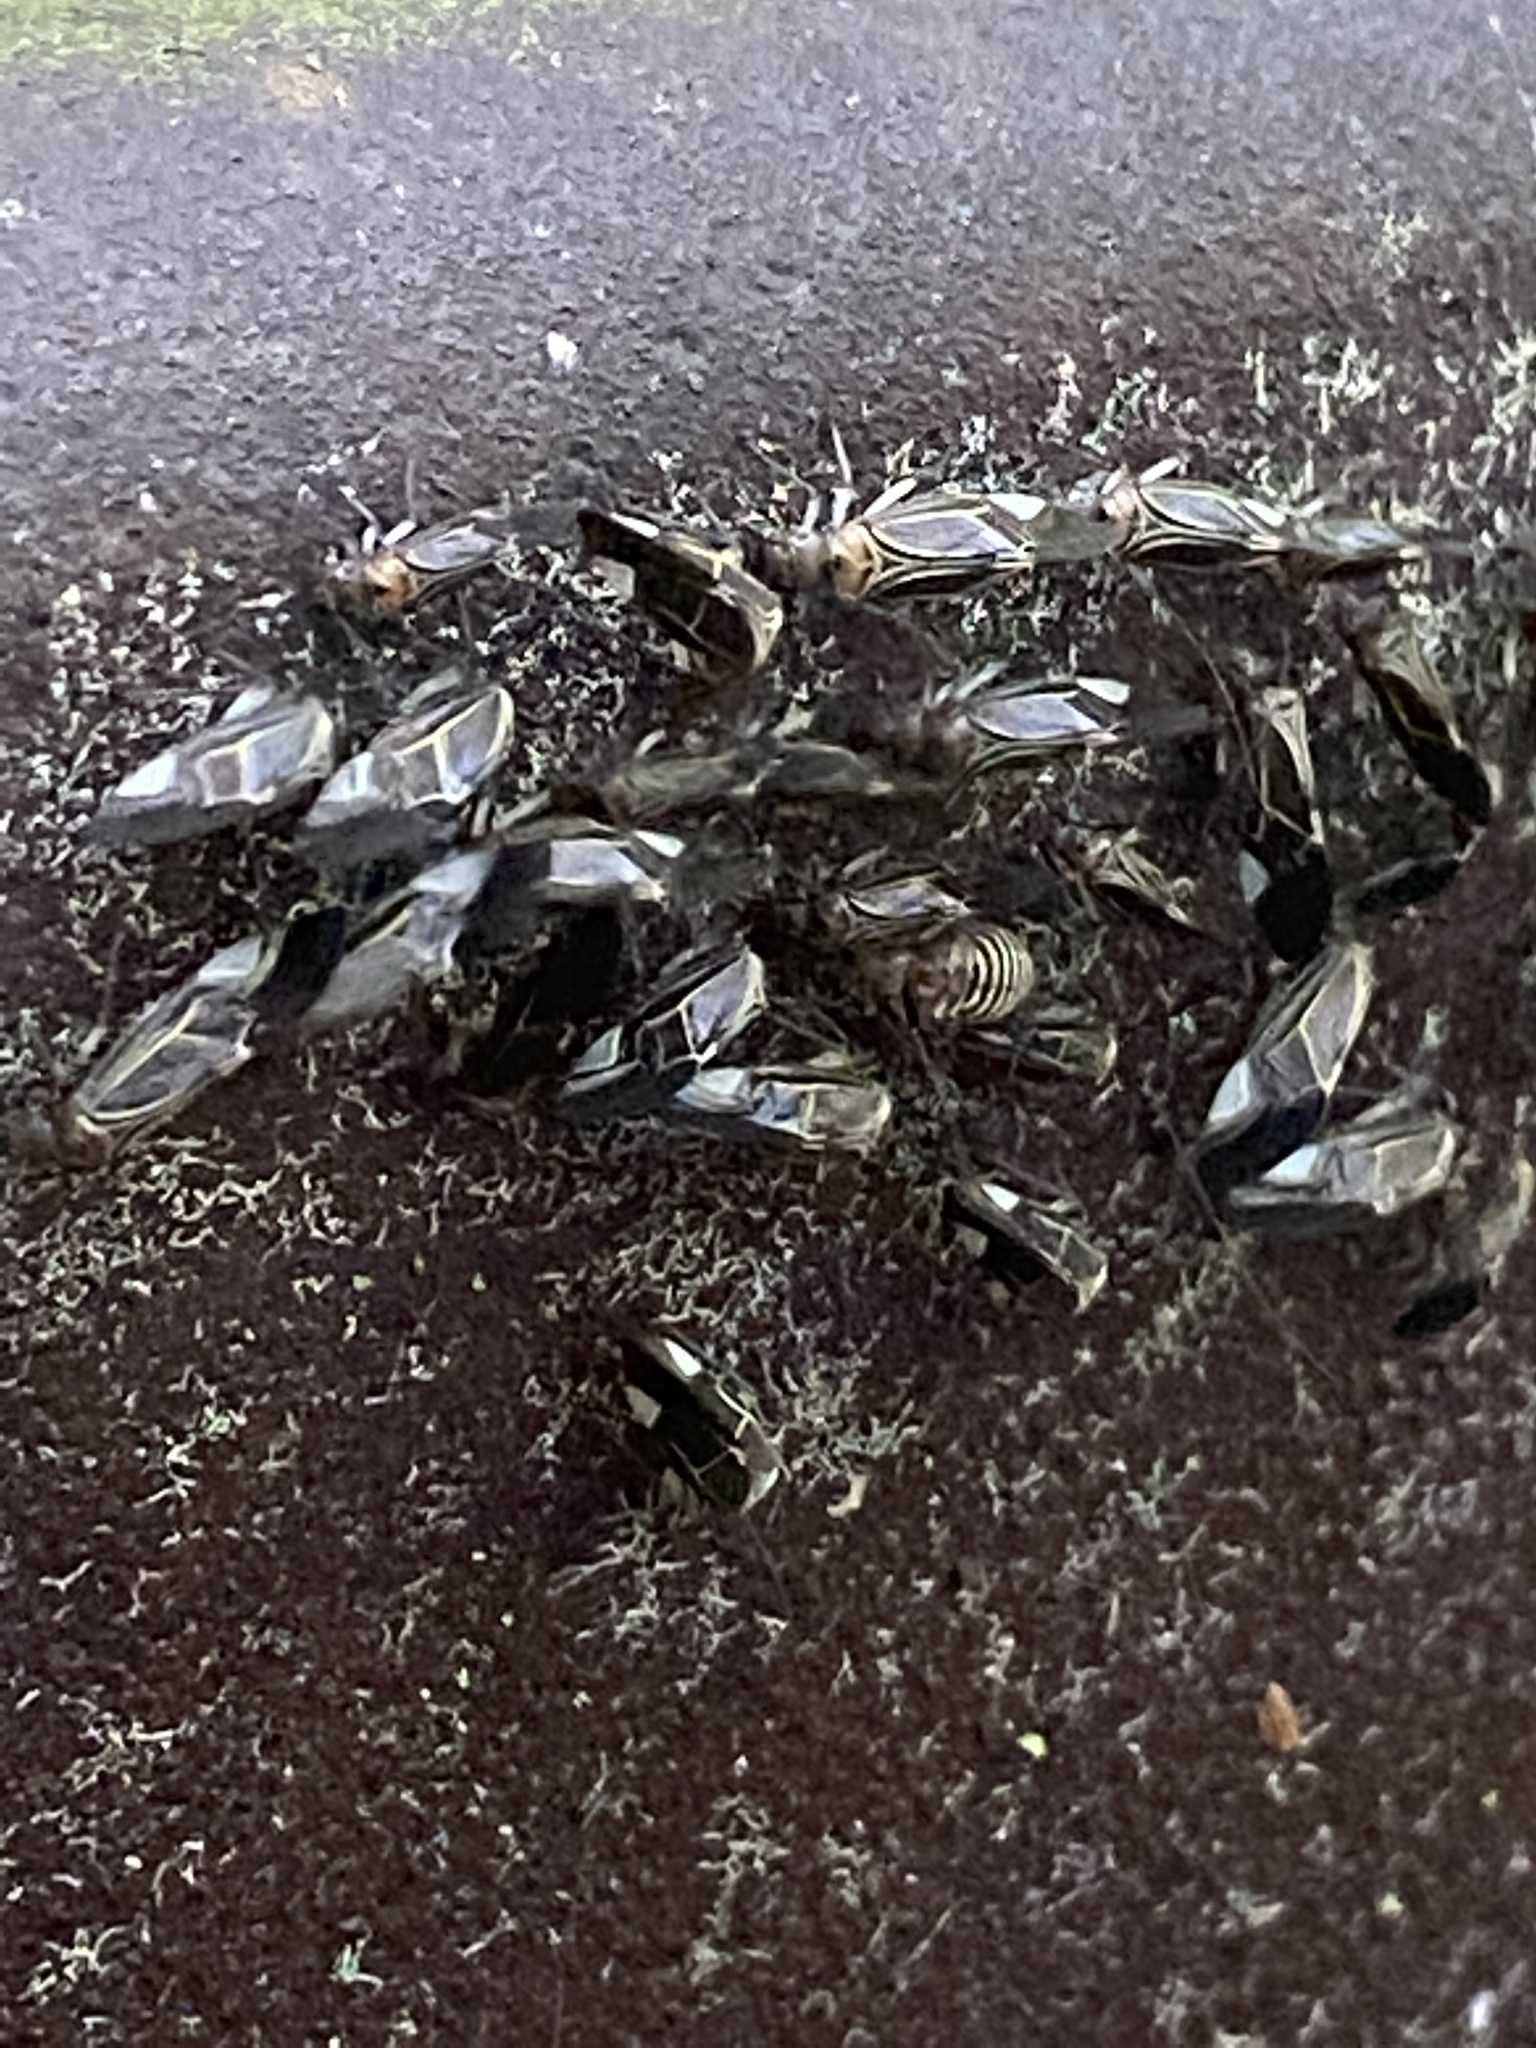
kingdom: Animalia
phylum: Arthropoda
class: Insecta
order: Psocodea
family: Psocidae
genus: Cerastipsocus
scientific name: Cerastipsocus venosus
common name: Tree cattle
